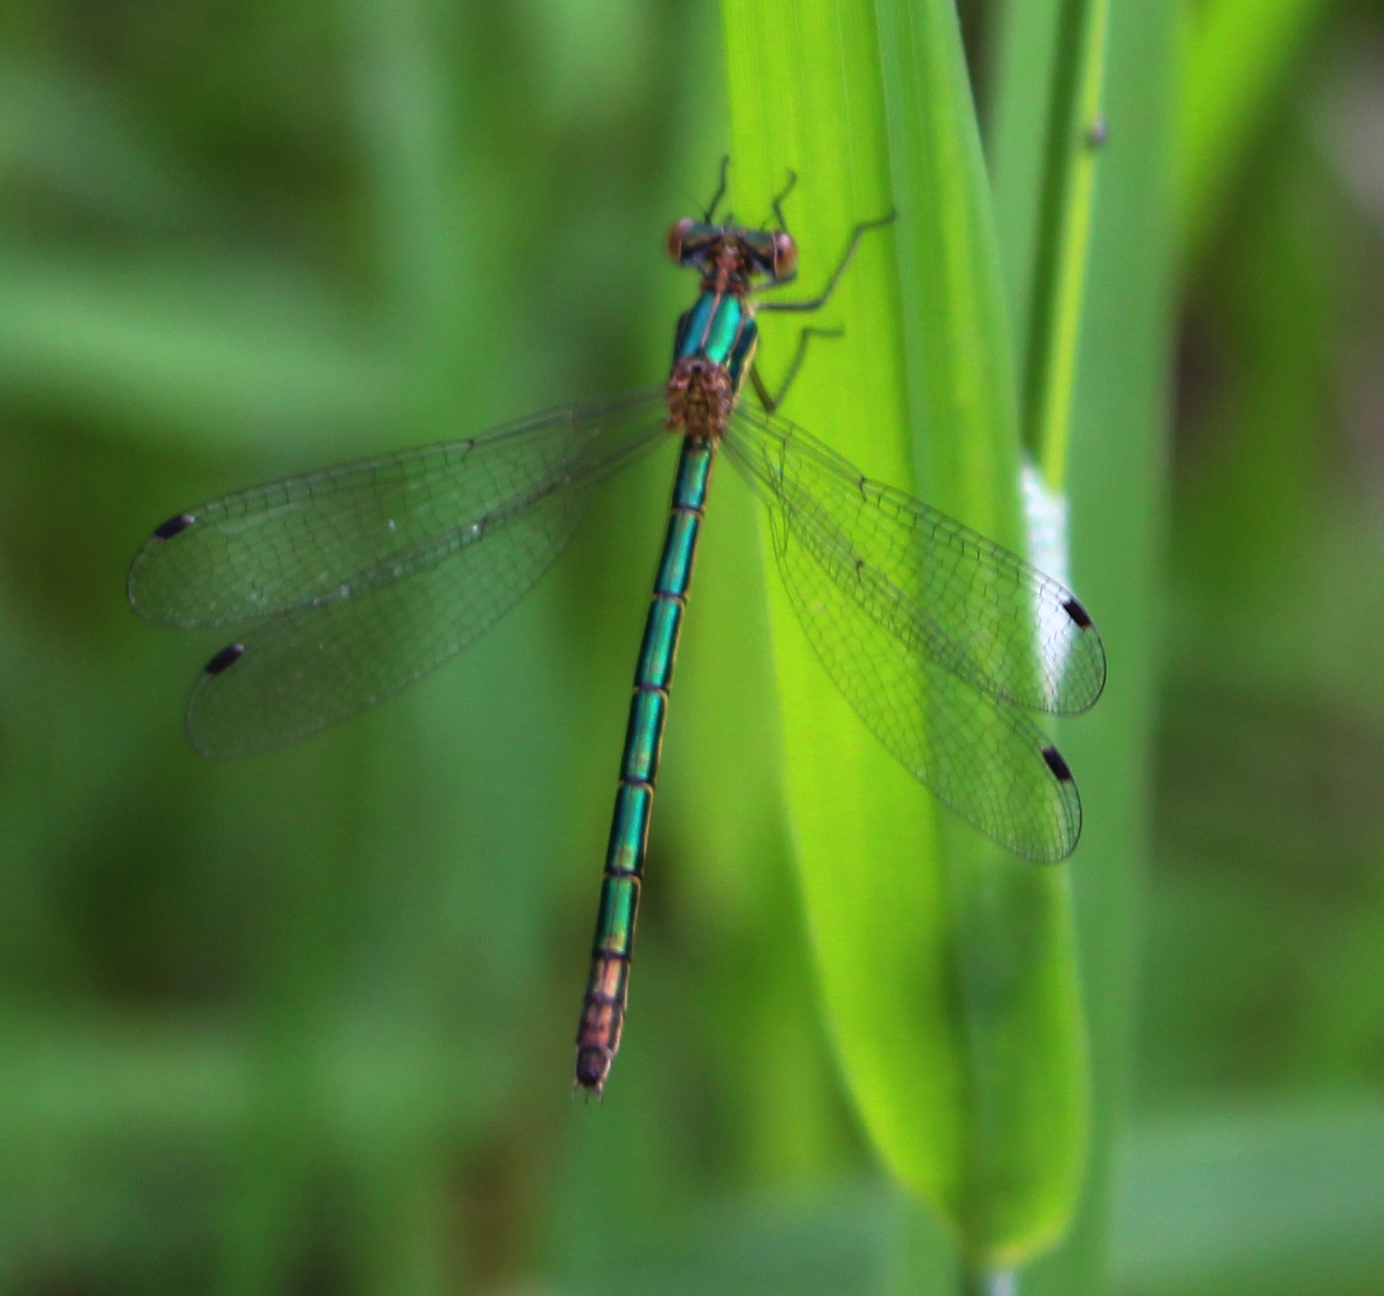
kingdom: Animalia
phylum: Arthropoda
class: Insecta
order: Odonata
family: Lestidae
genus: Lestes
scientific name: Lestes dryas
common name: Scarce emerald damselfly
